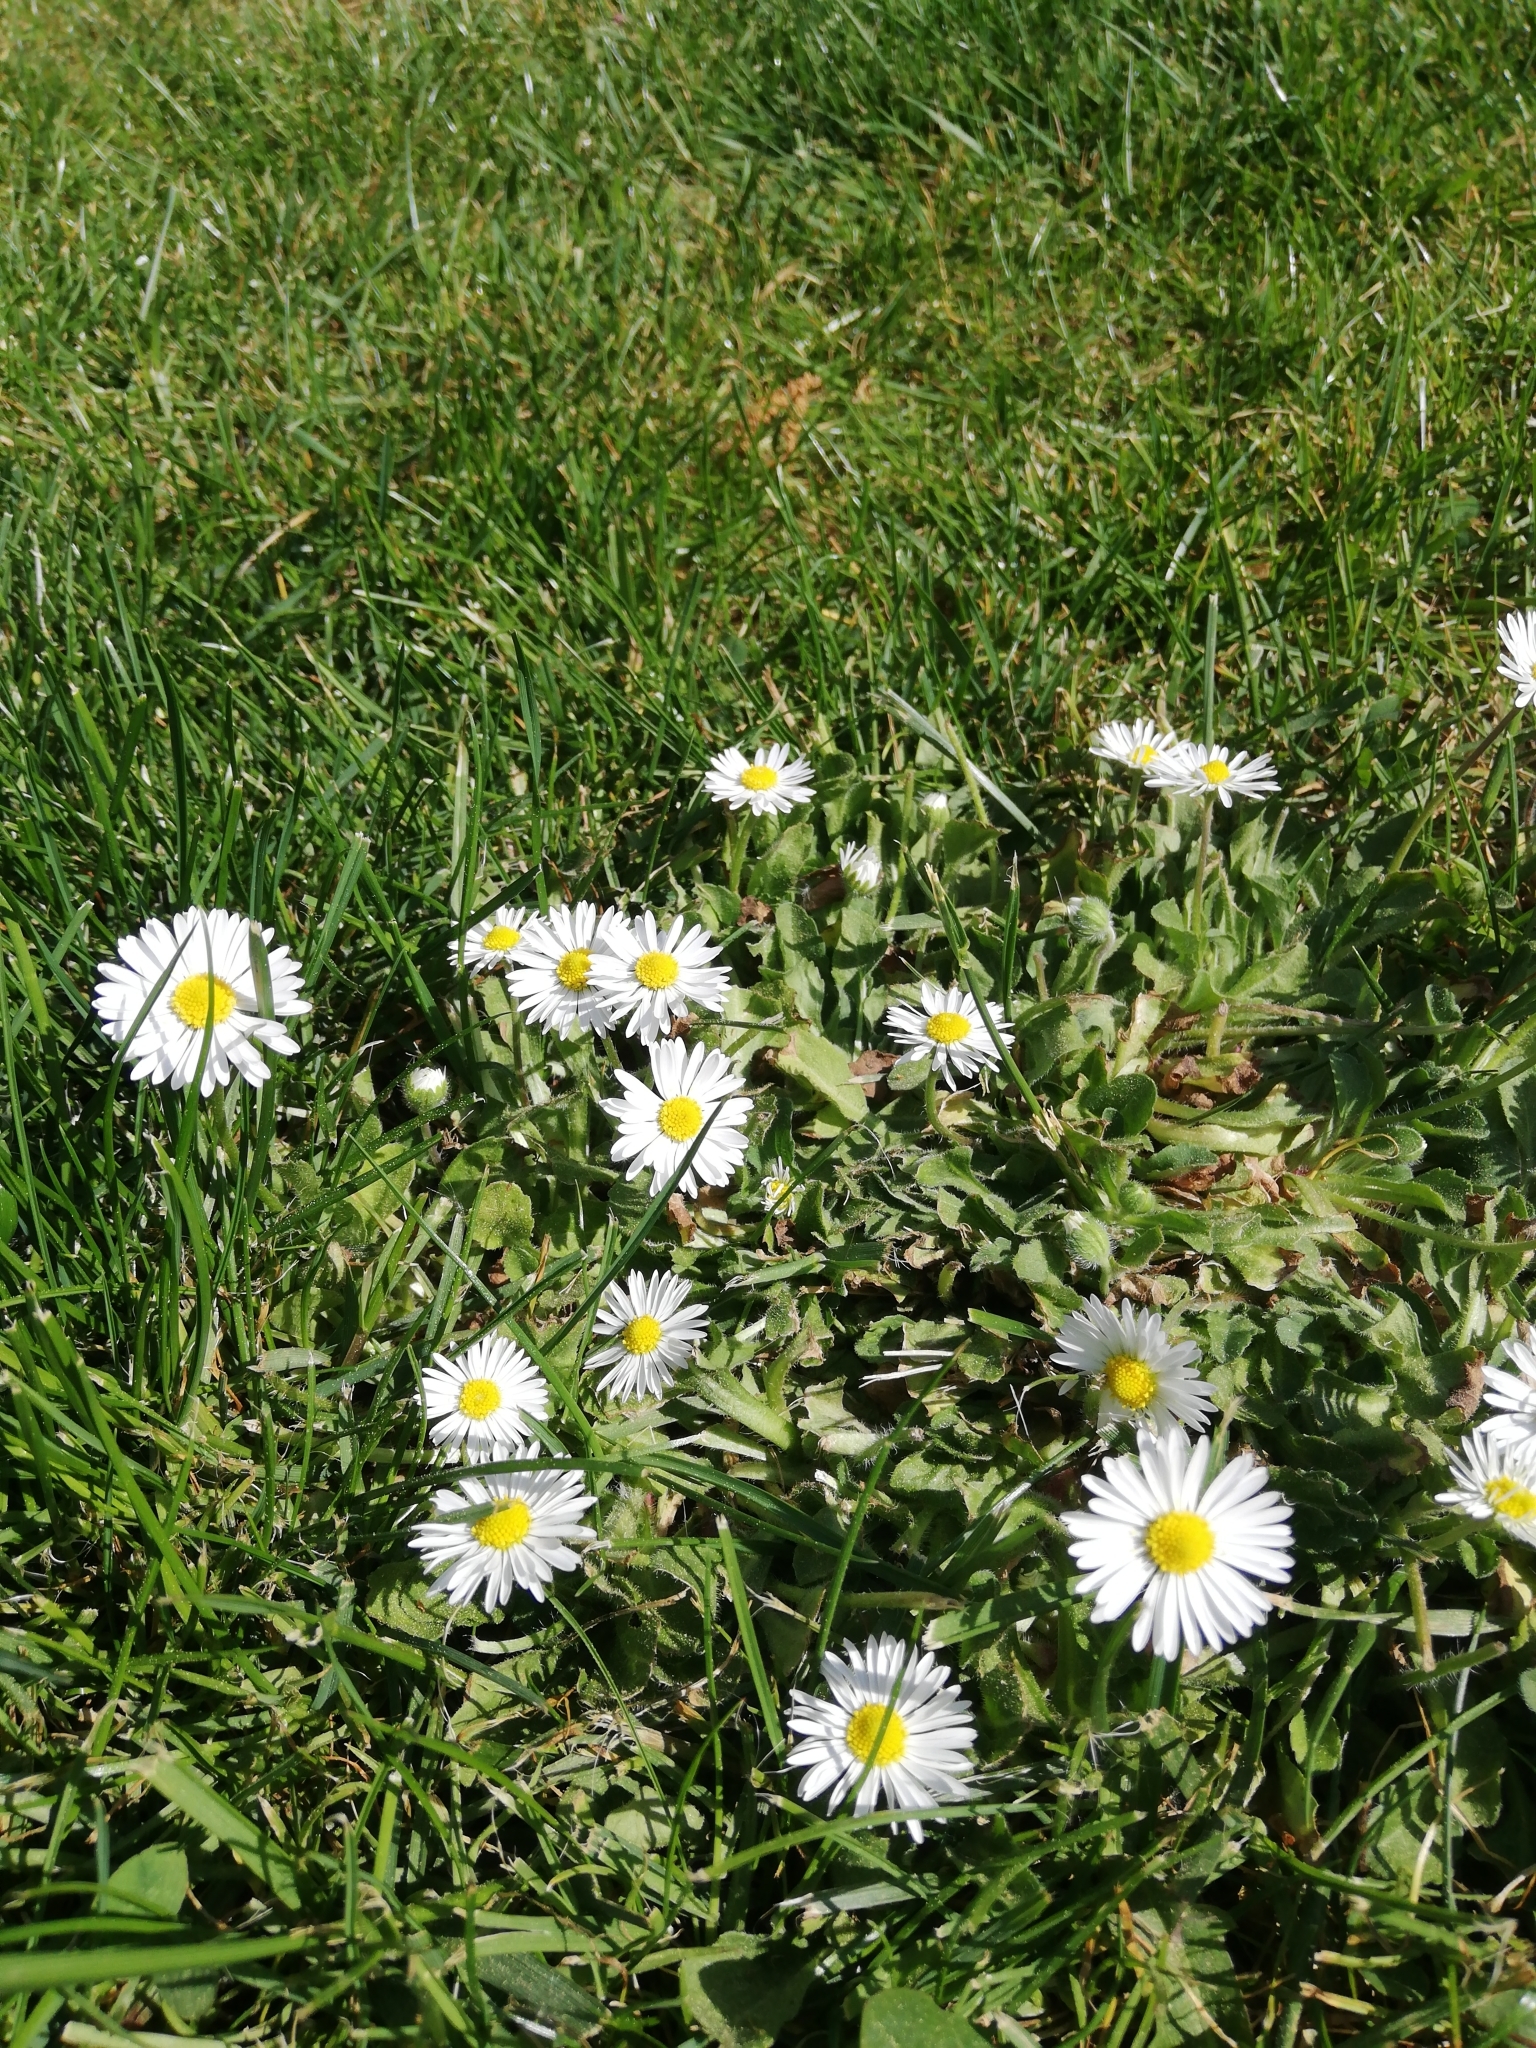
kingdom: Plantae
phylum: Tracheophyta
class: Magnoliopsida
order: Asterales
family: Asteraceae
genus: Bellis
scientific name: Bellis perennis
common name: Lawndaisy
